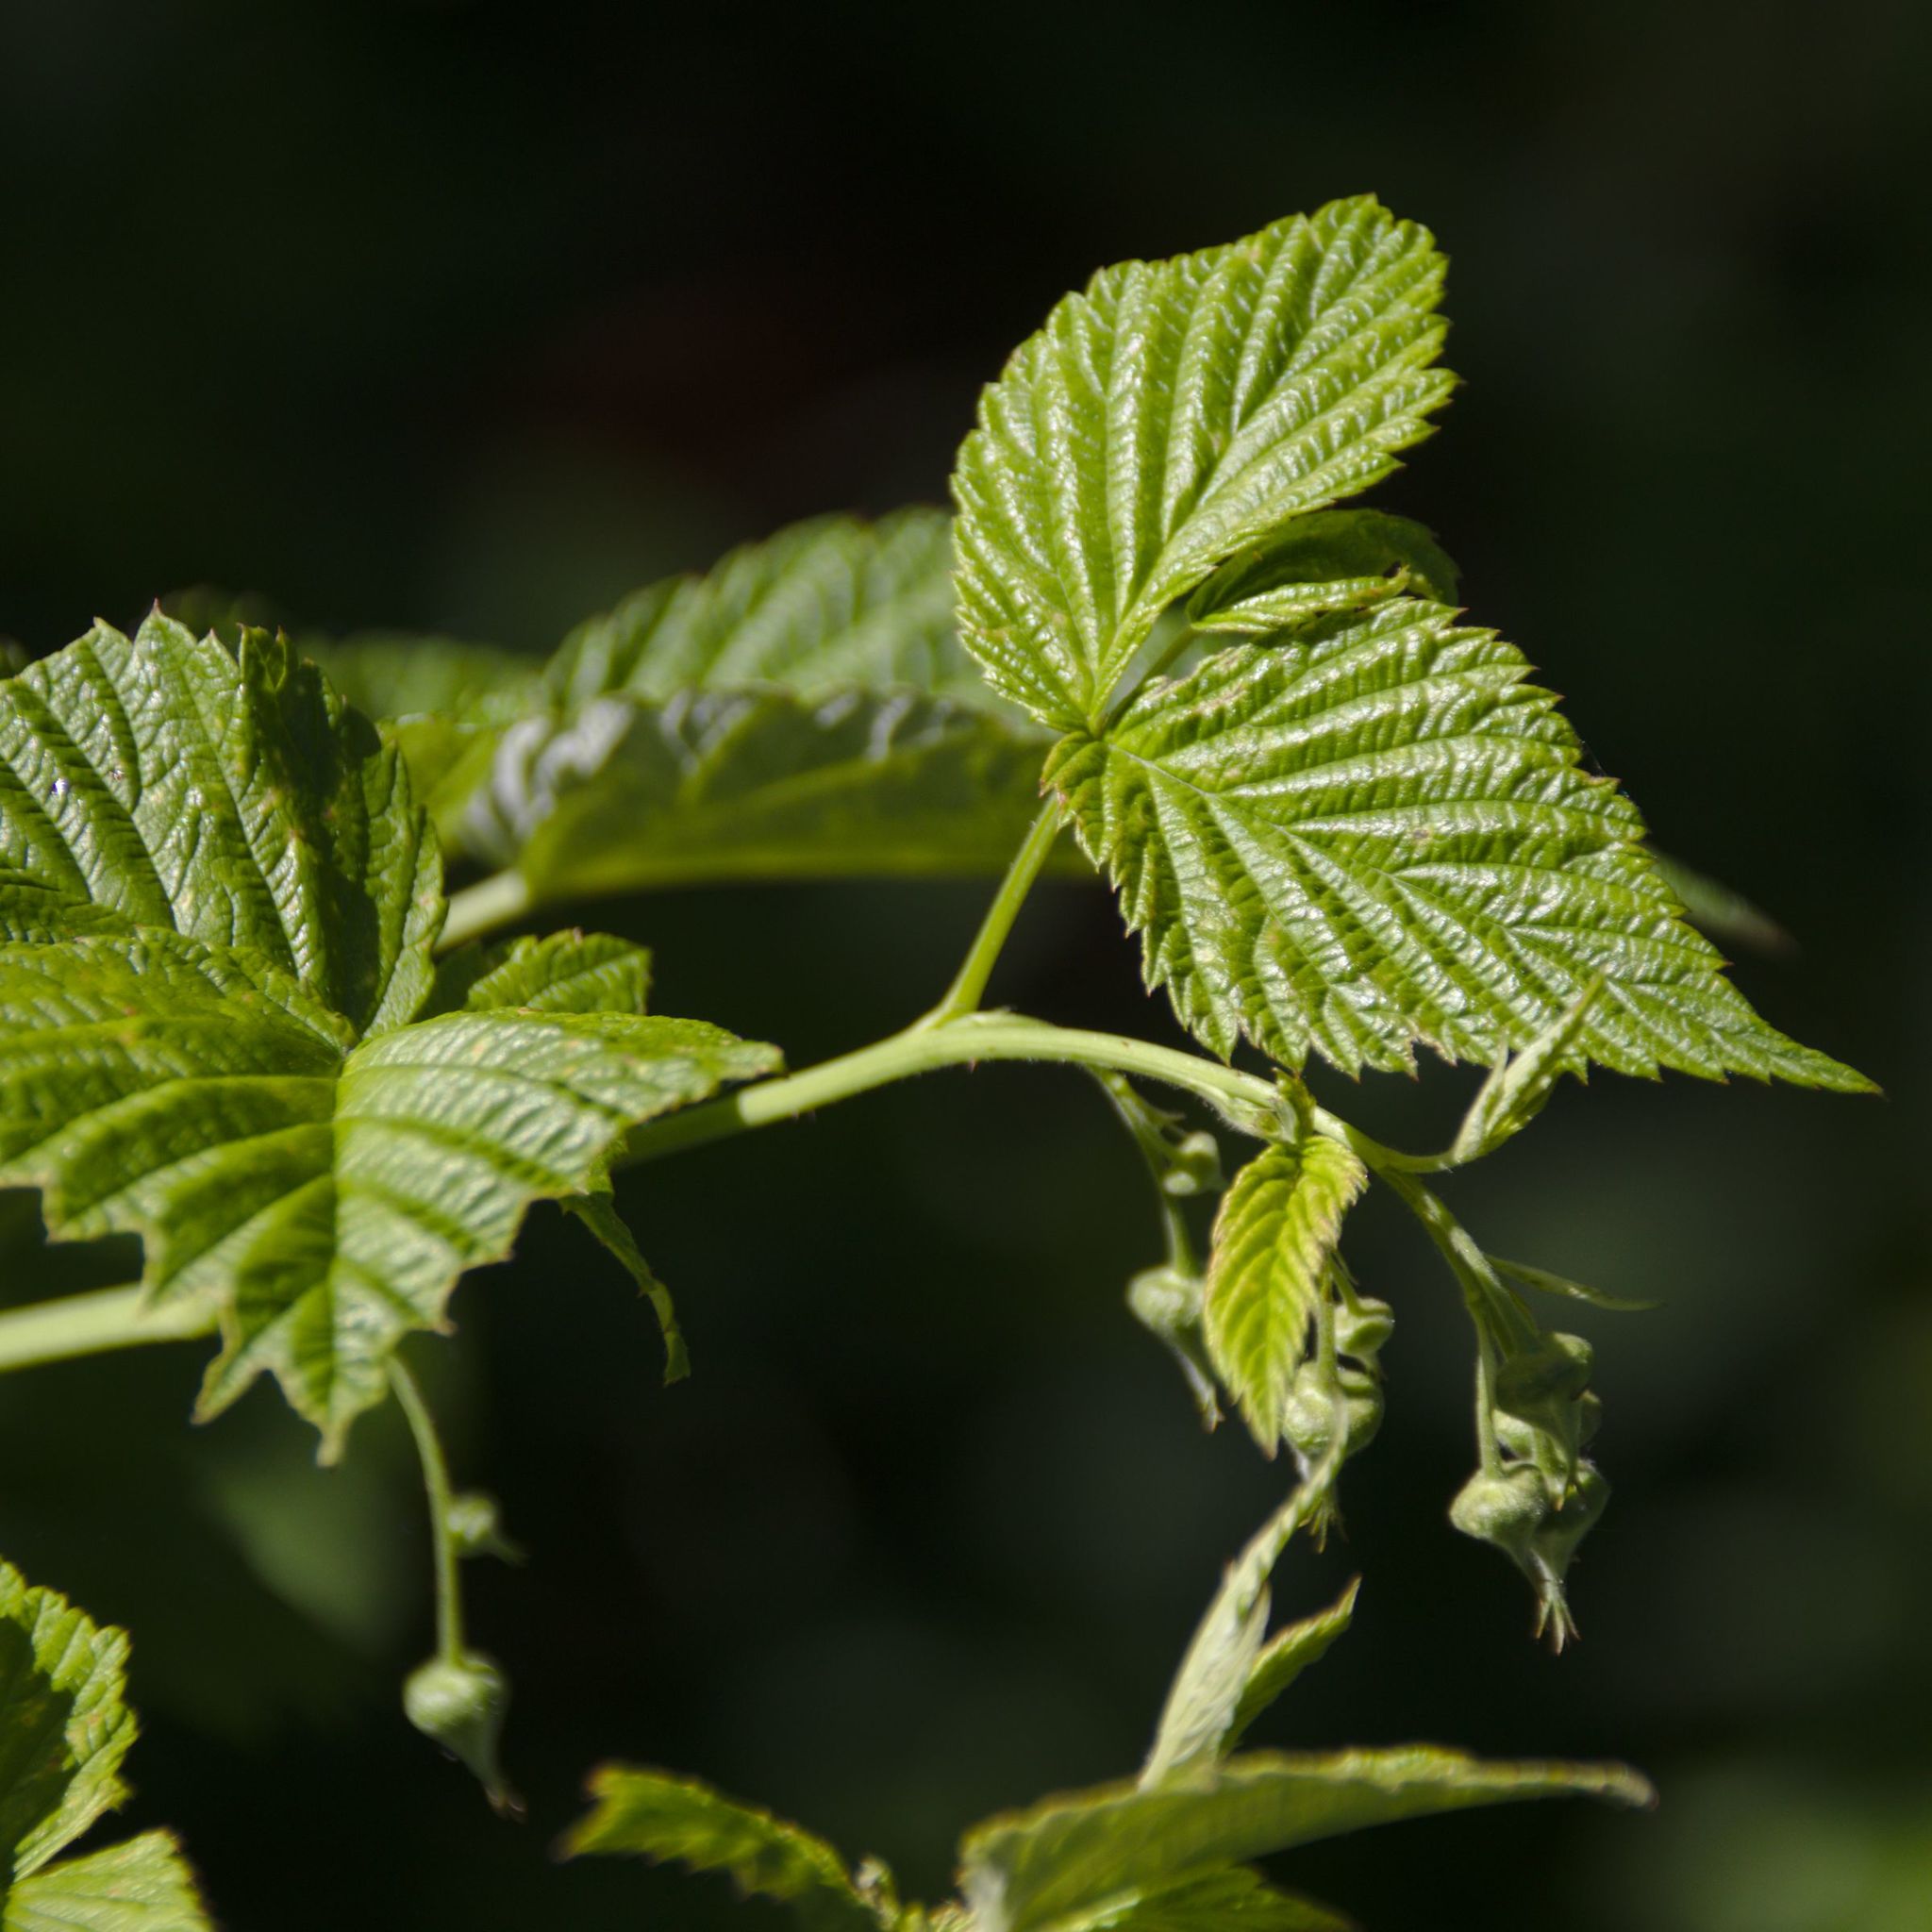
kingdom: Plantae
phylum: Tracheophyta
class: Magnoliopsida
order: Rosales
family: Rosaceae
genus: Rubus
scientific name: Rubus idaeus
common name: Raspberry
